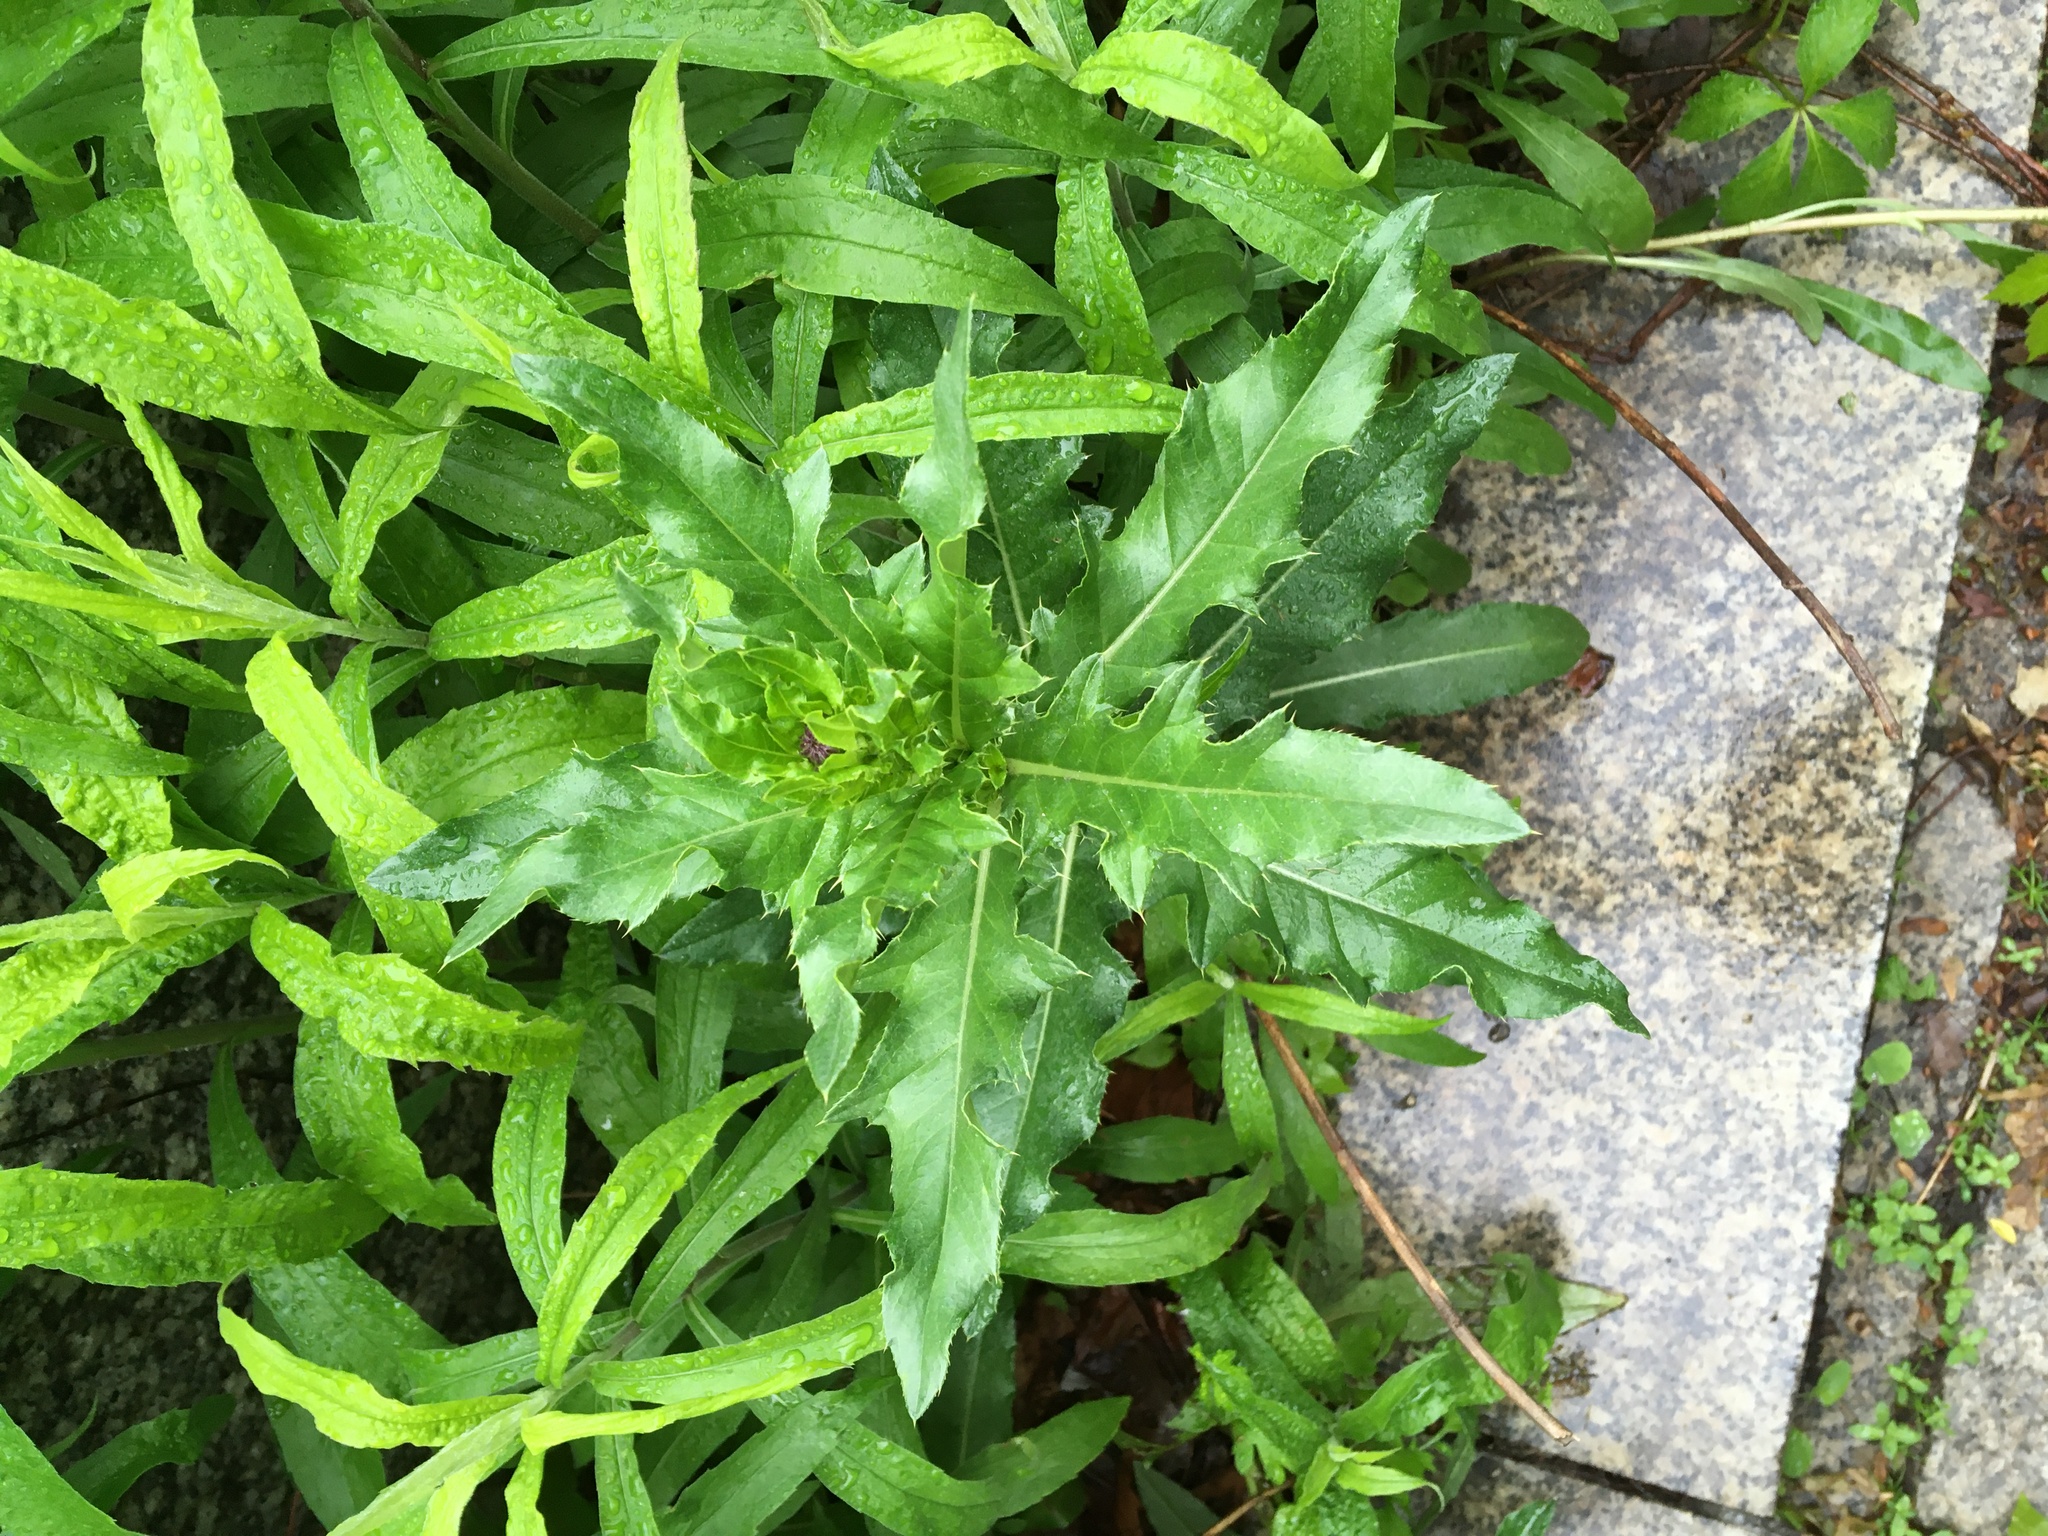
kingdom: Plantae
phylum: Tracheophyta
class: Magnoliopsida
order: Asterales
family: Asteraceae
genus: Cirsium
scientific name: Cirsium arvense
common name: Creeping thistle
